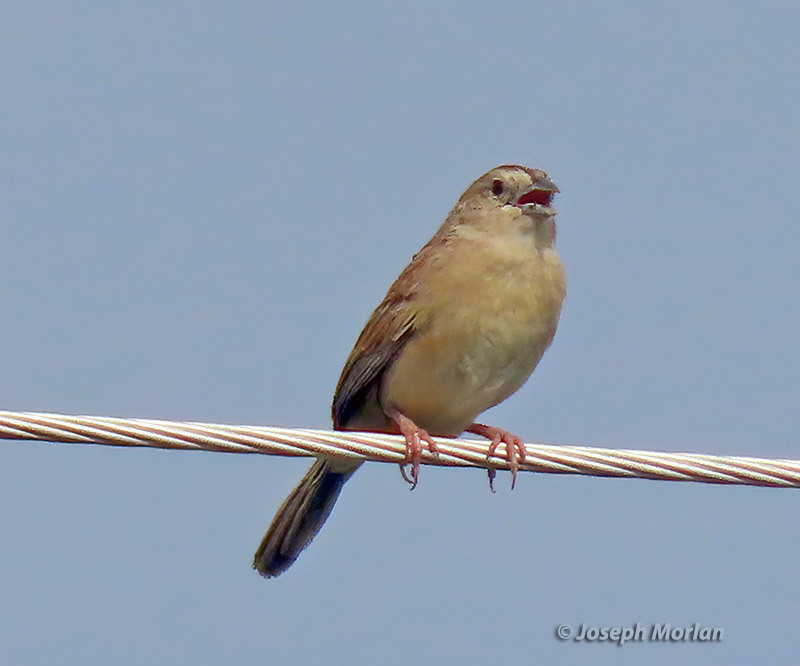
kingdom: Animalia
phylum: Chordata
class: Aves
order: Passeriformes
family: Passerellidae
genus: Peucaea
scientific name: Peucaea botterii
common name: Botteri's sparrow
